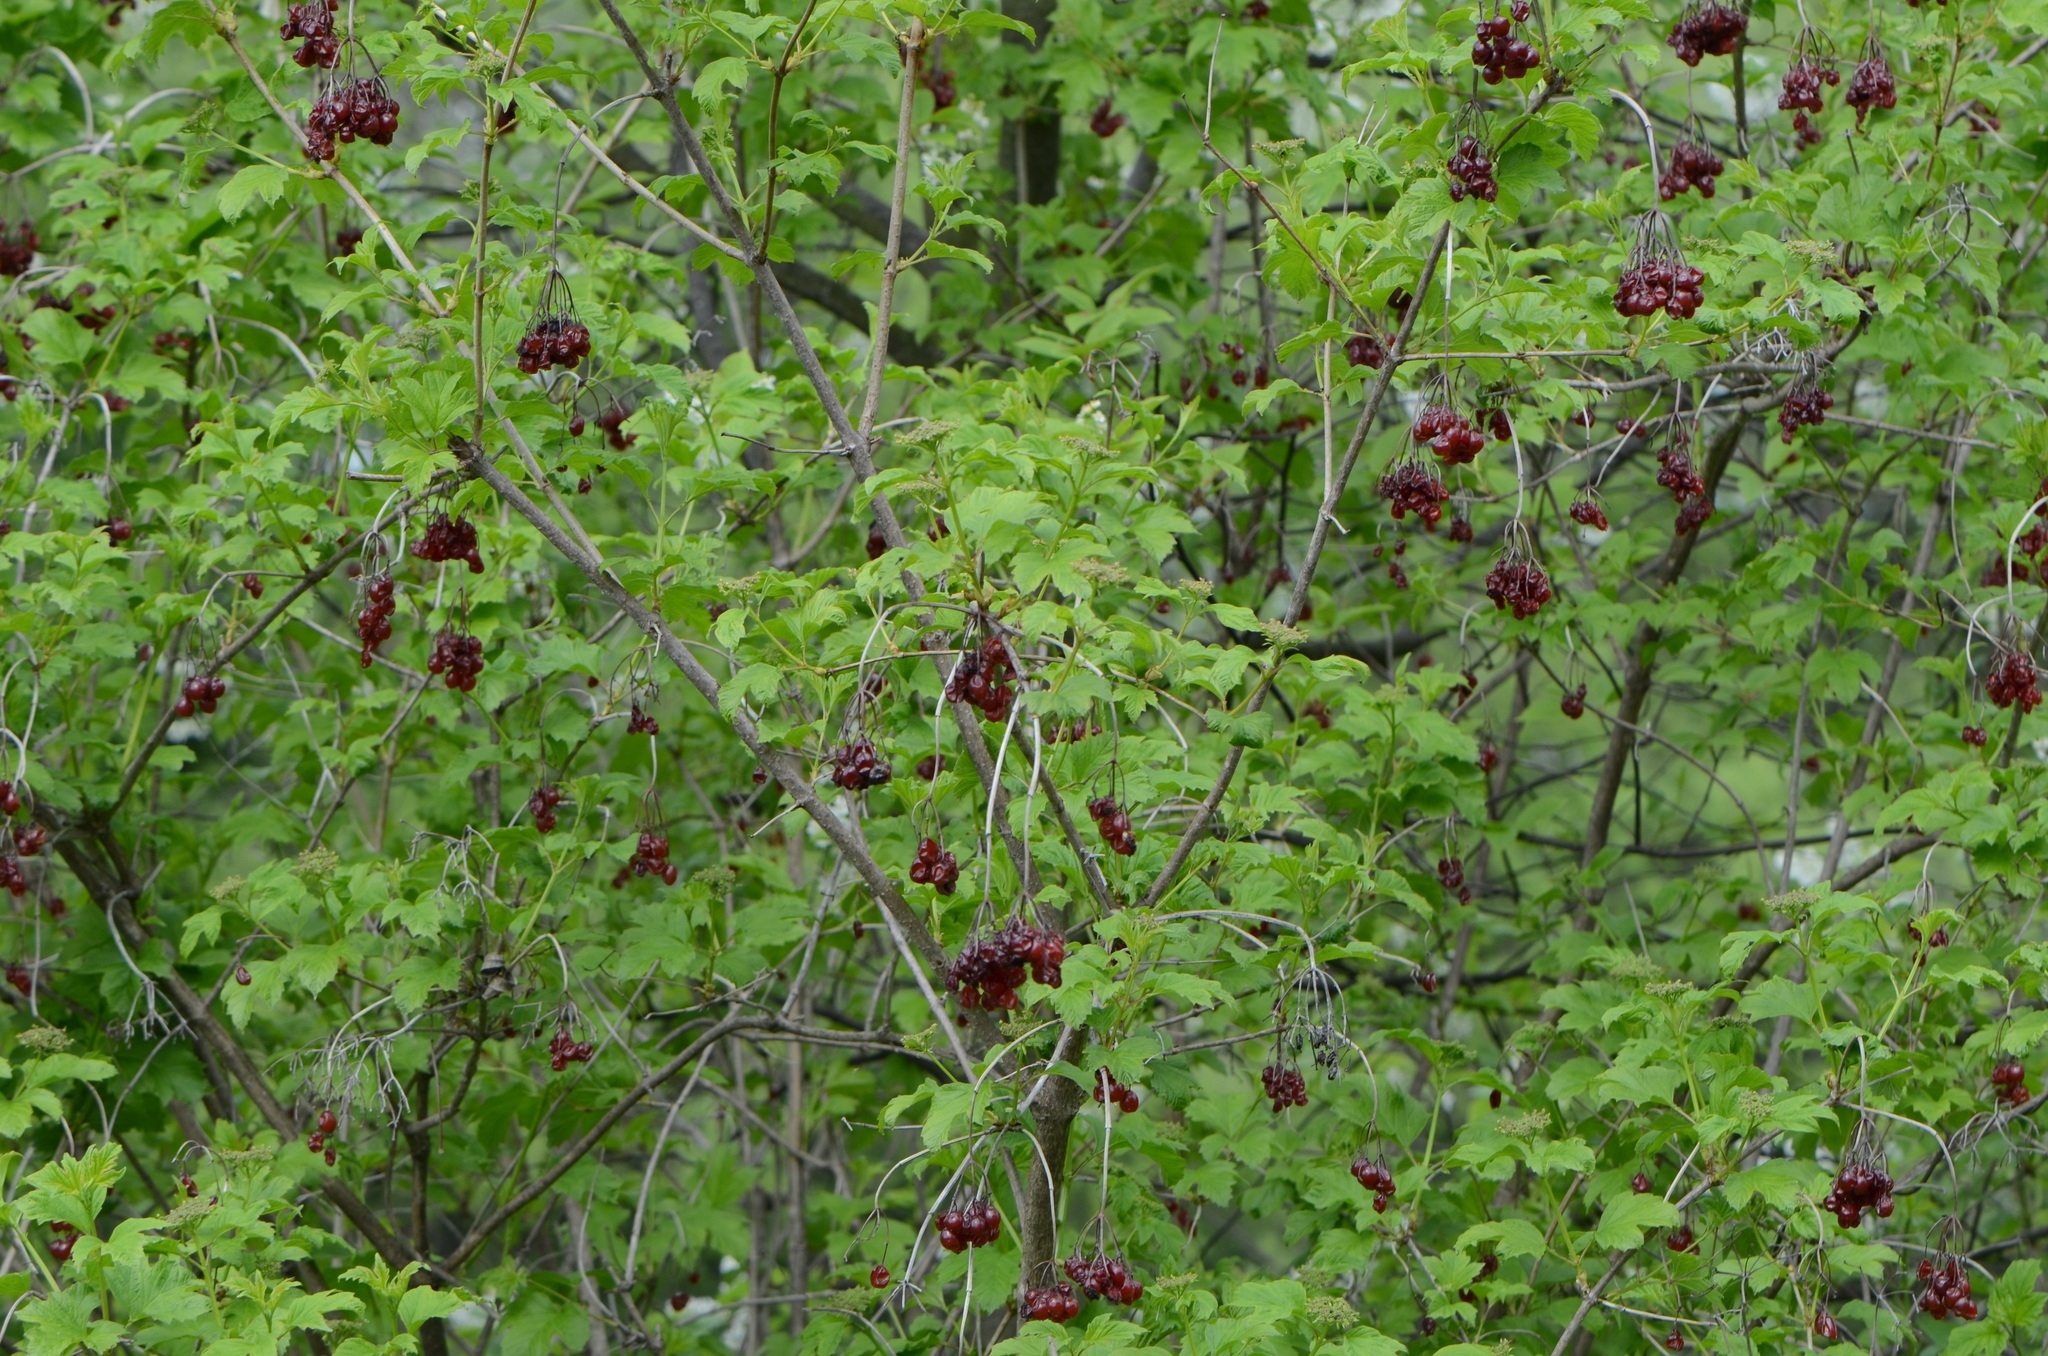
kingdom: Plantae
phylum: Tracheophyta
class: Magnoliopsida
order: Dipsacales
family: Viburnaceae
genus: Viburnum
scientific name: Viburnum opulus
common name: Guelder-rose
